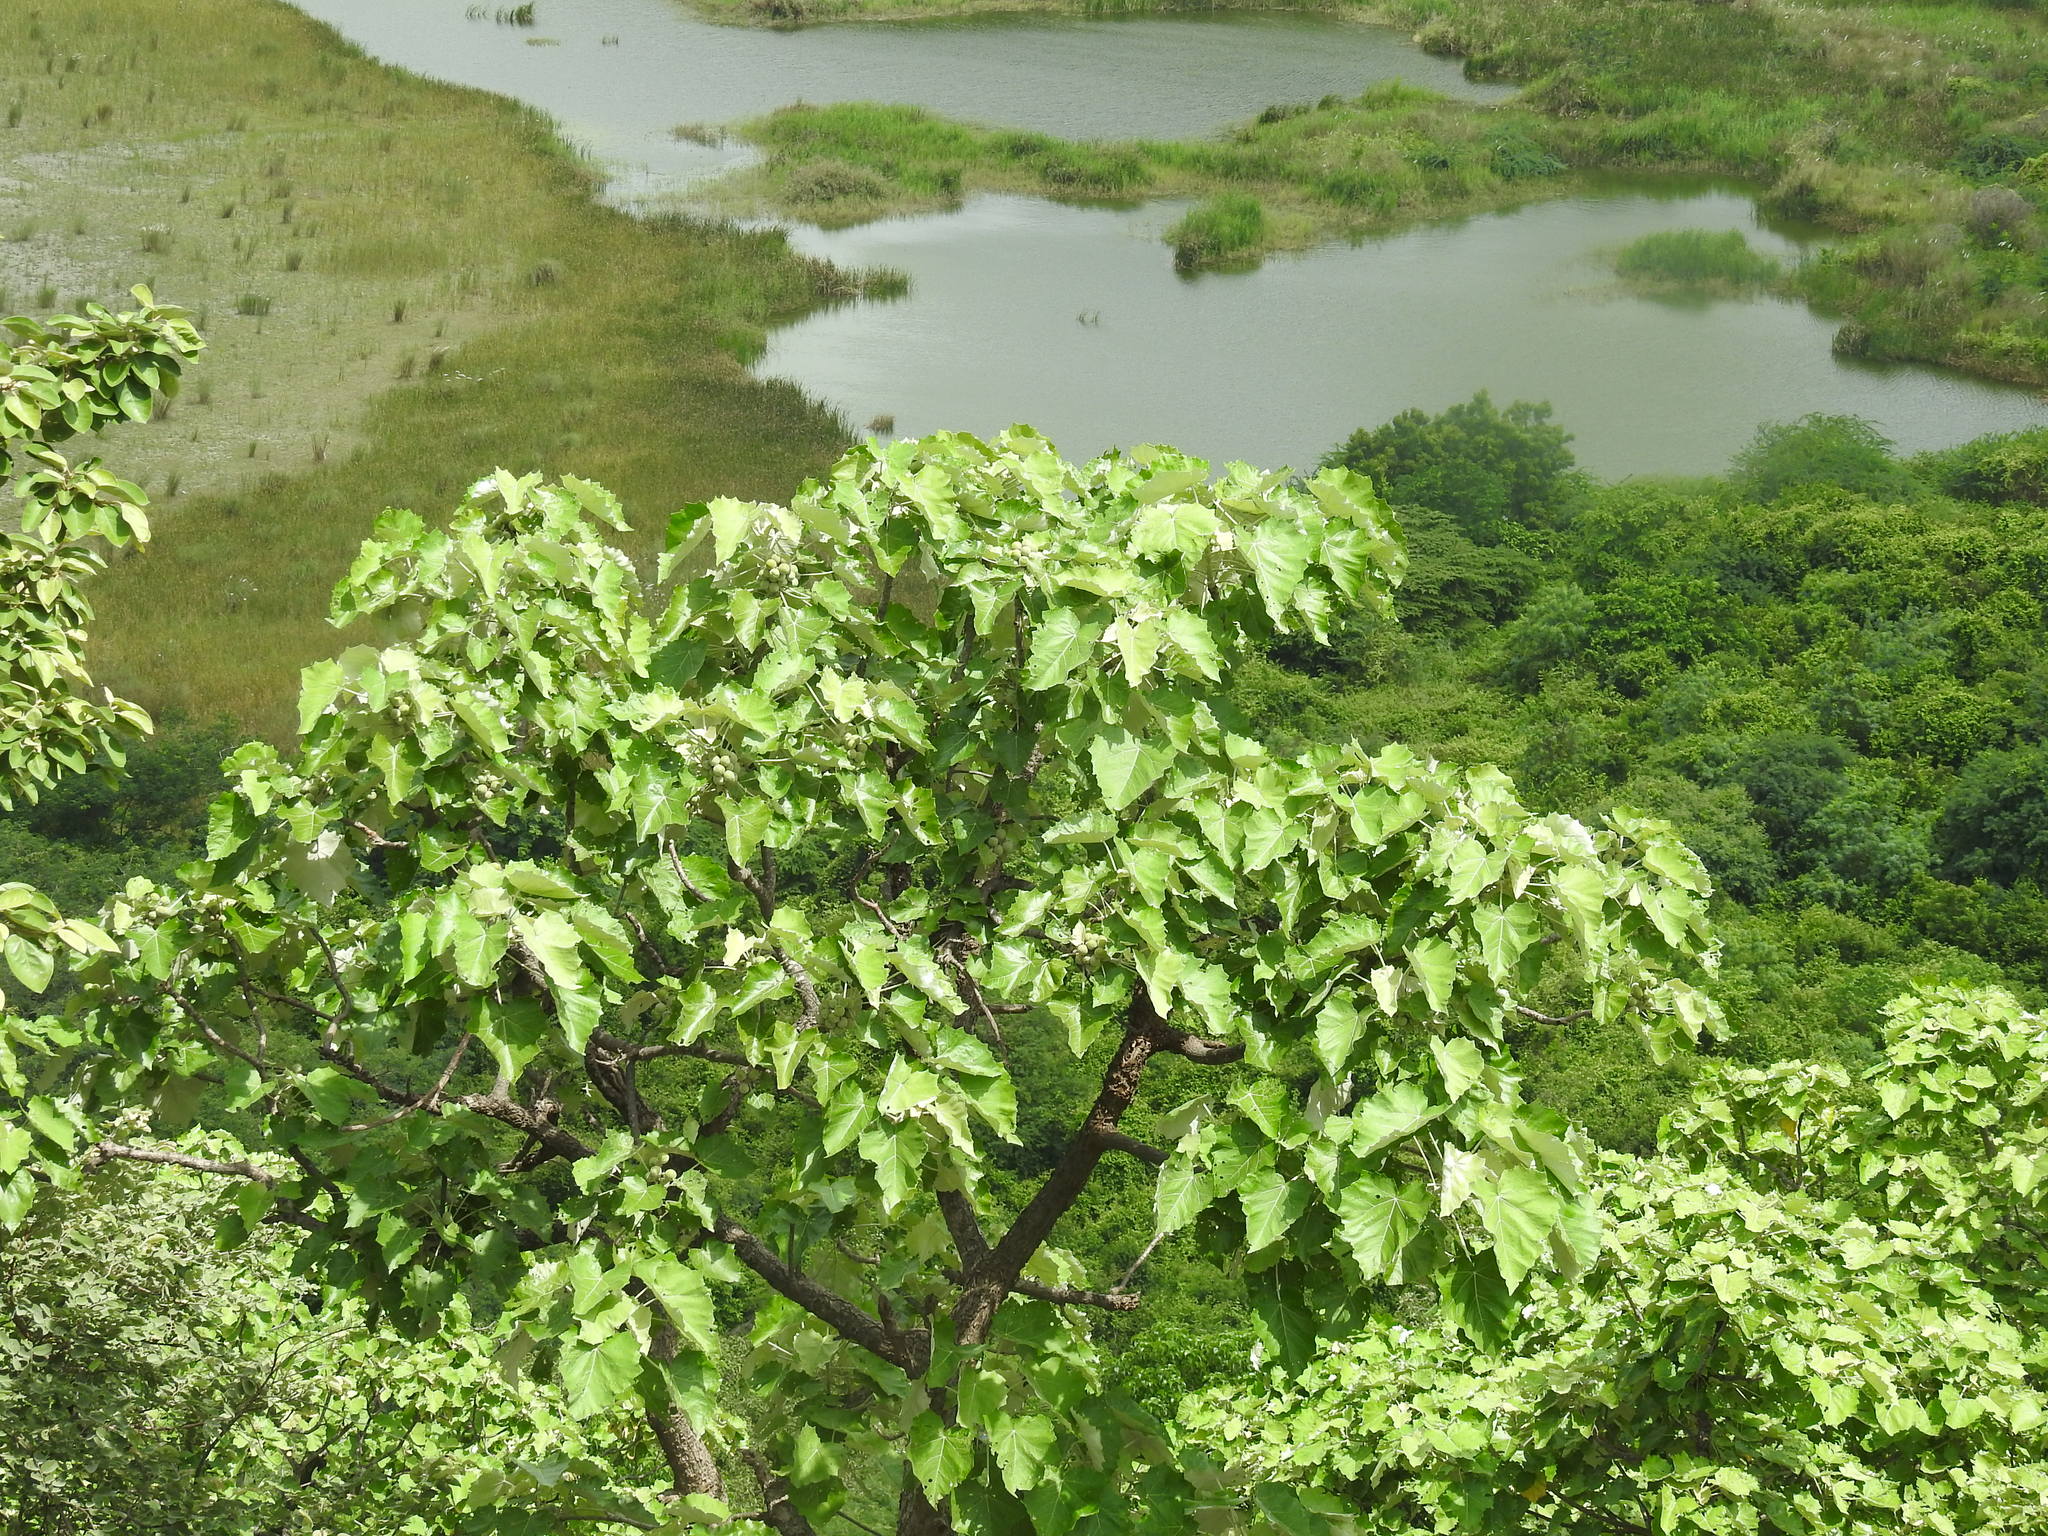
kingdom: Plantae
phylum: Tracheophyta
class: Magnoliopsida
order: Malpighiales
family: Euphorbiaceae
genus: Givotia
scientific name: Givotia moluccana
